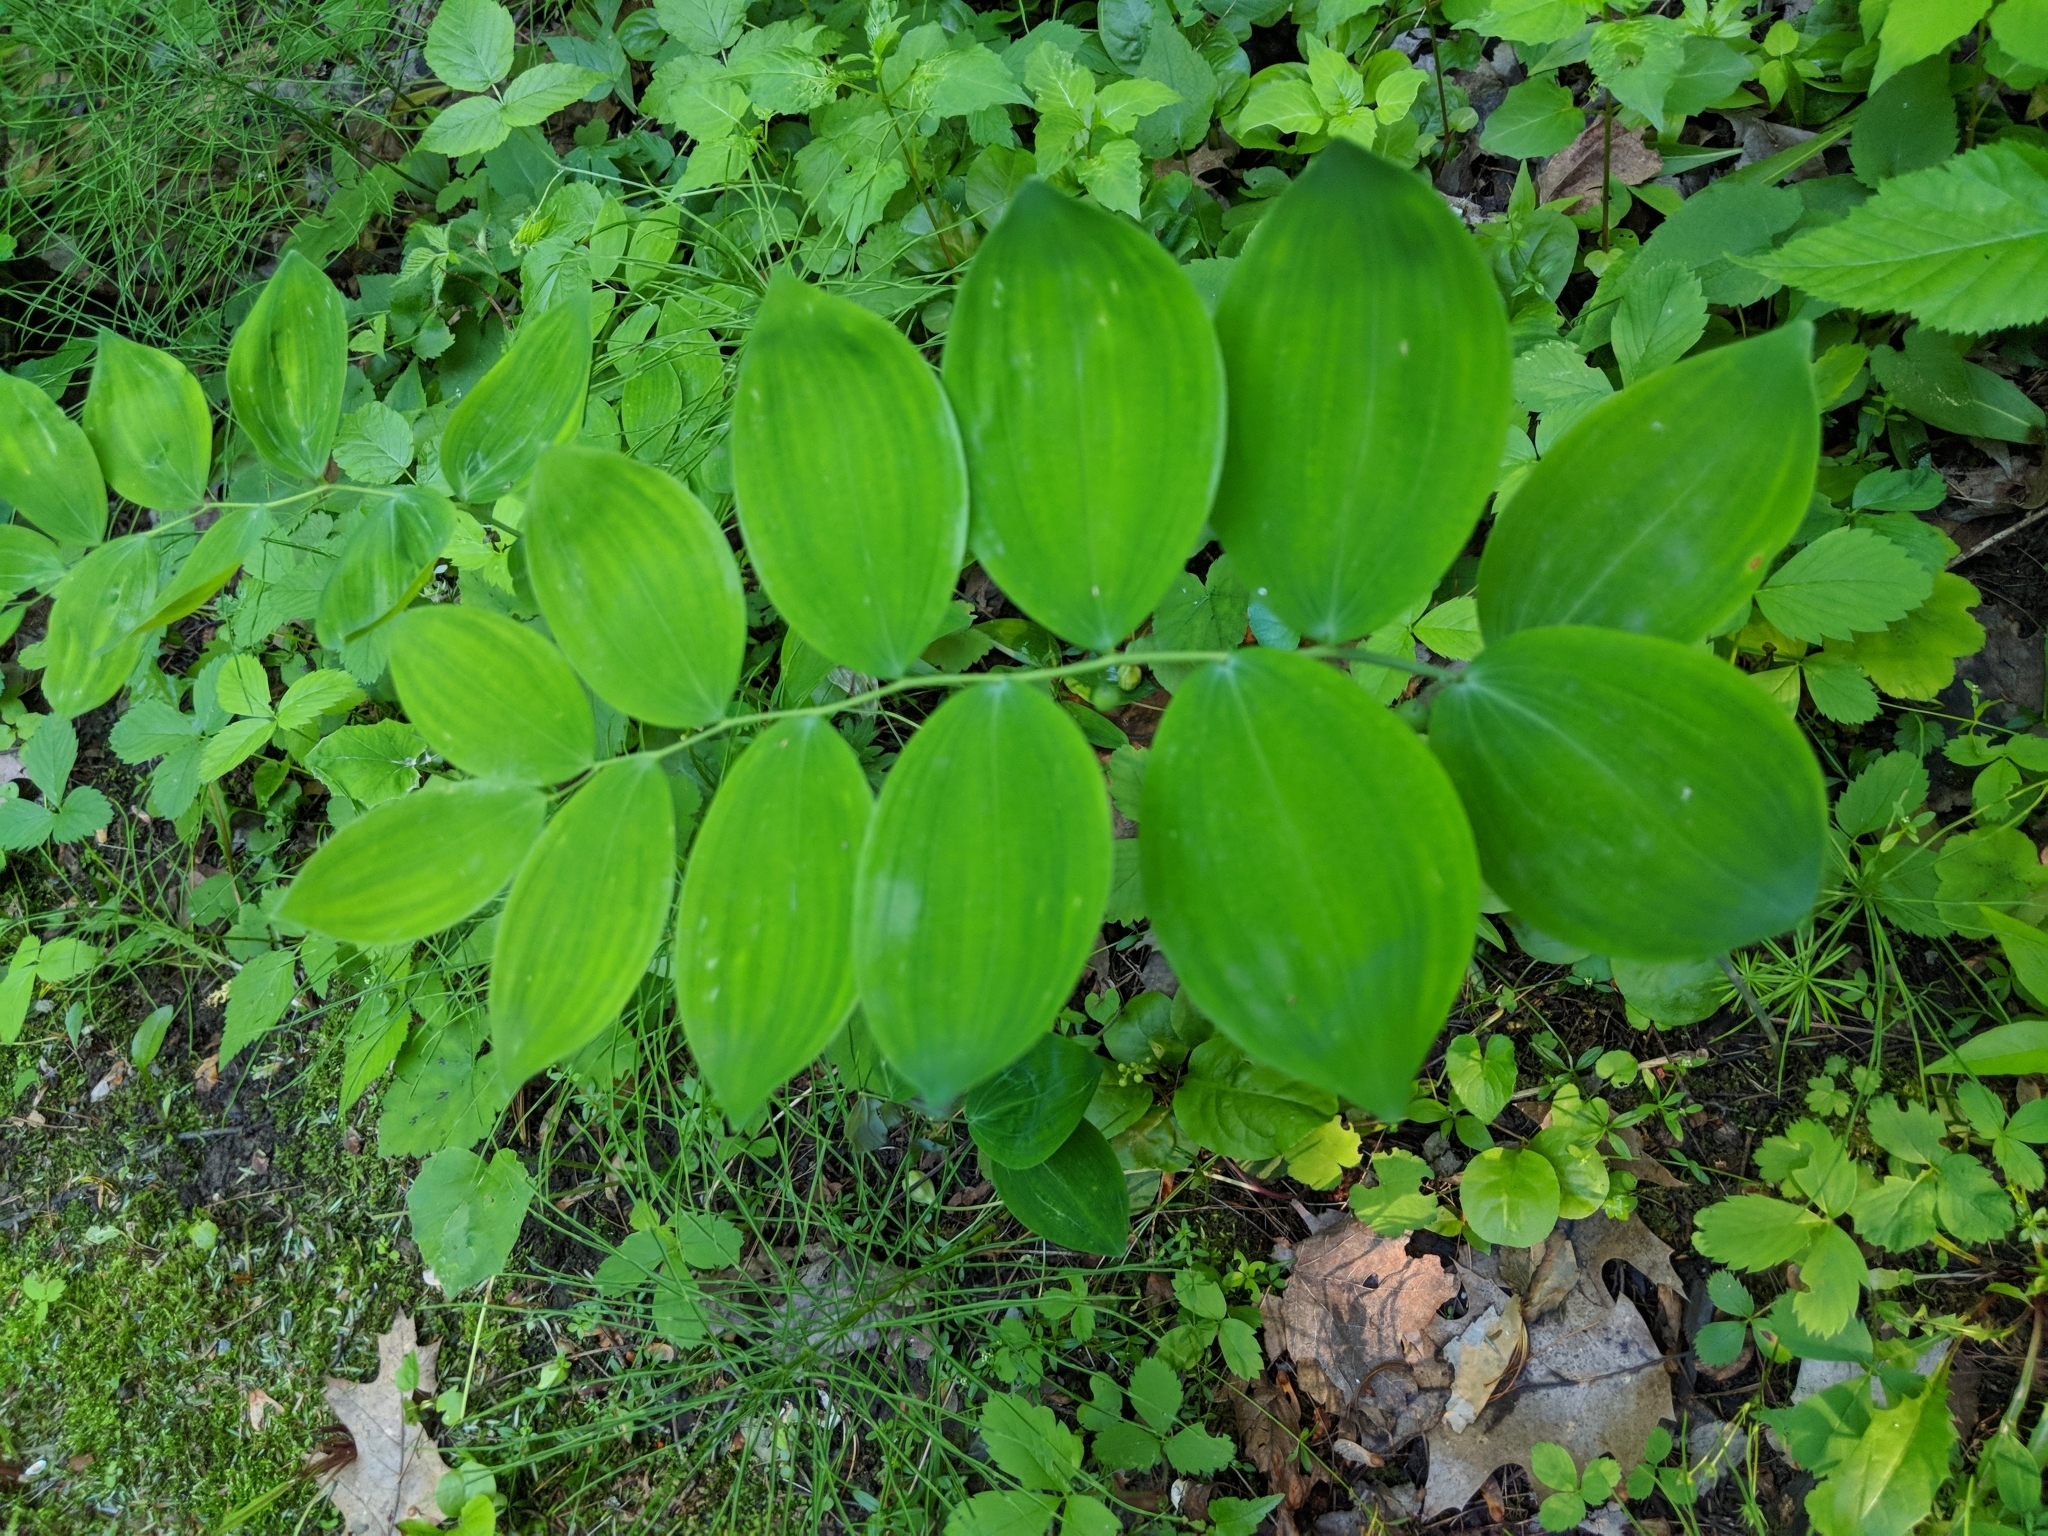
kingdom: Plantae
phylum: Tracheophyta
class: Liliopsida
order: Asparagales
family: Asparagaceae
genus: Polygonatum
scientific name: Polygonatum pubescens
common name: Downy solomon's seal
